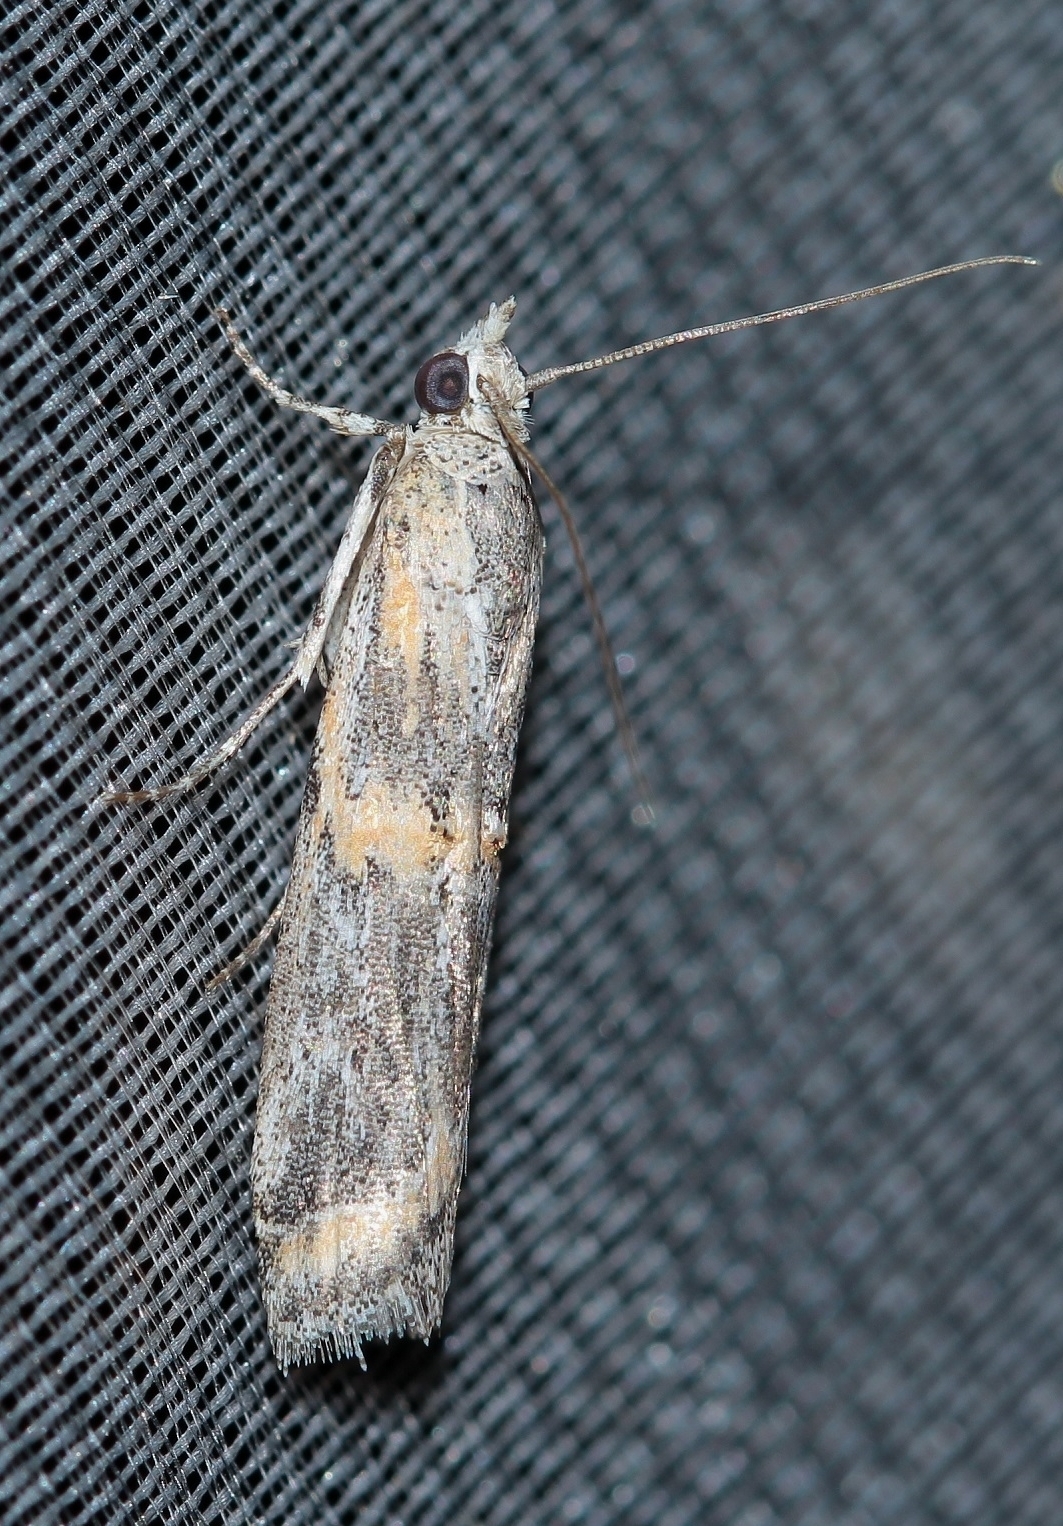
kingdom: Animalia
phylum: Arthropoda
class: Insecta
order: Lepidoptera
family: Pyralidae
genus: Psorosa
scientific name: Psorosa strictella
